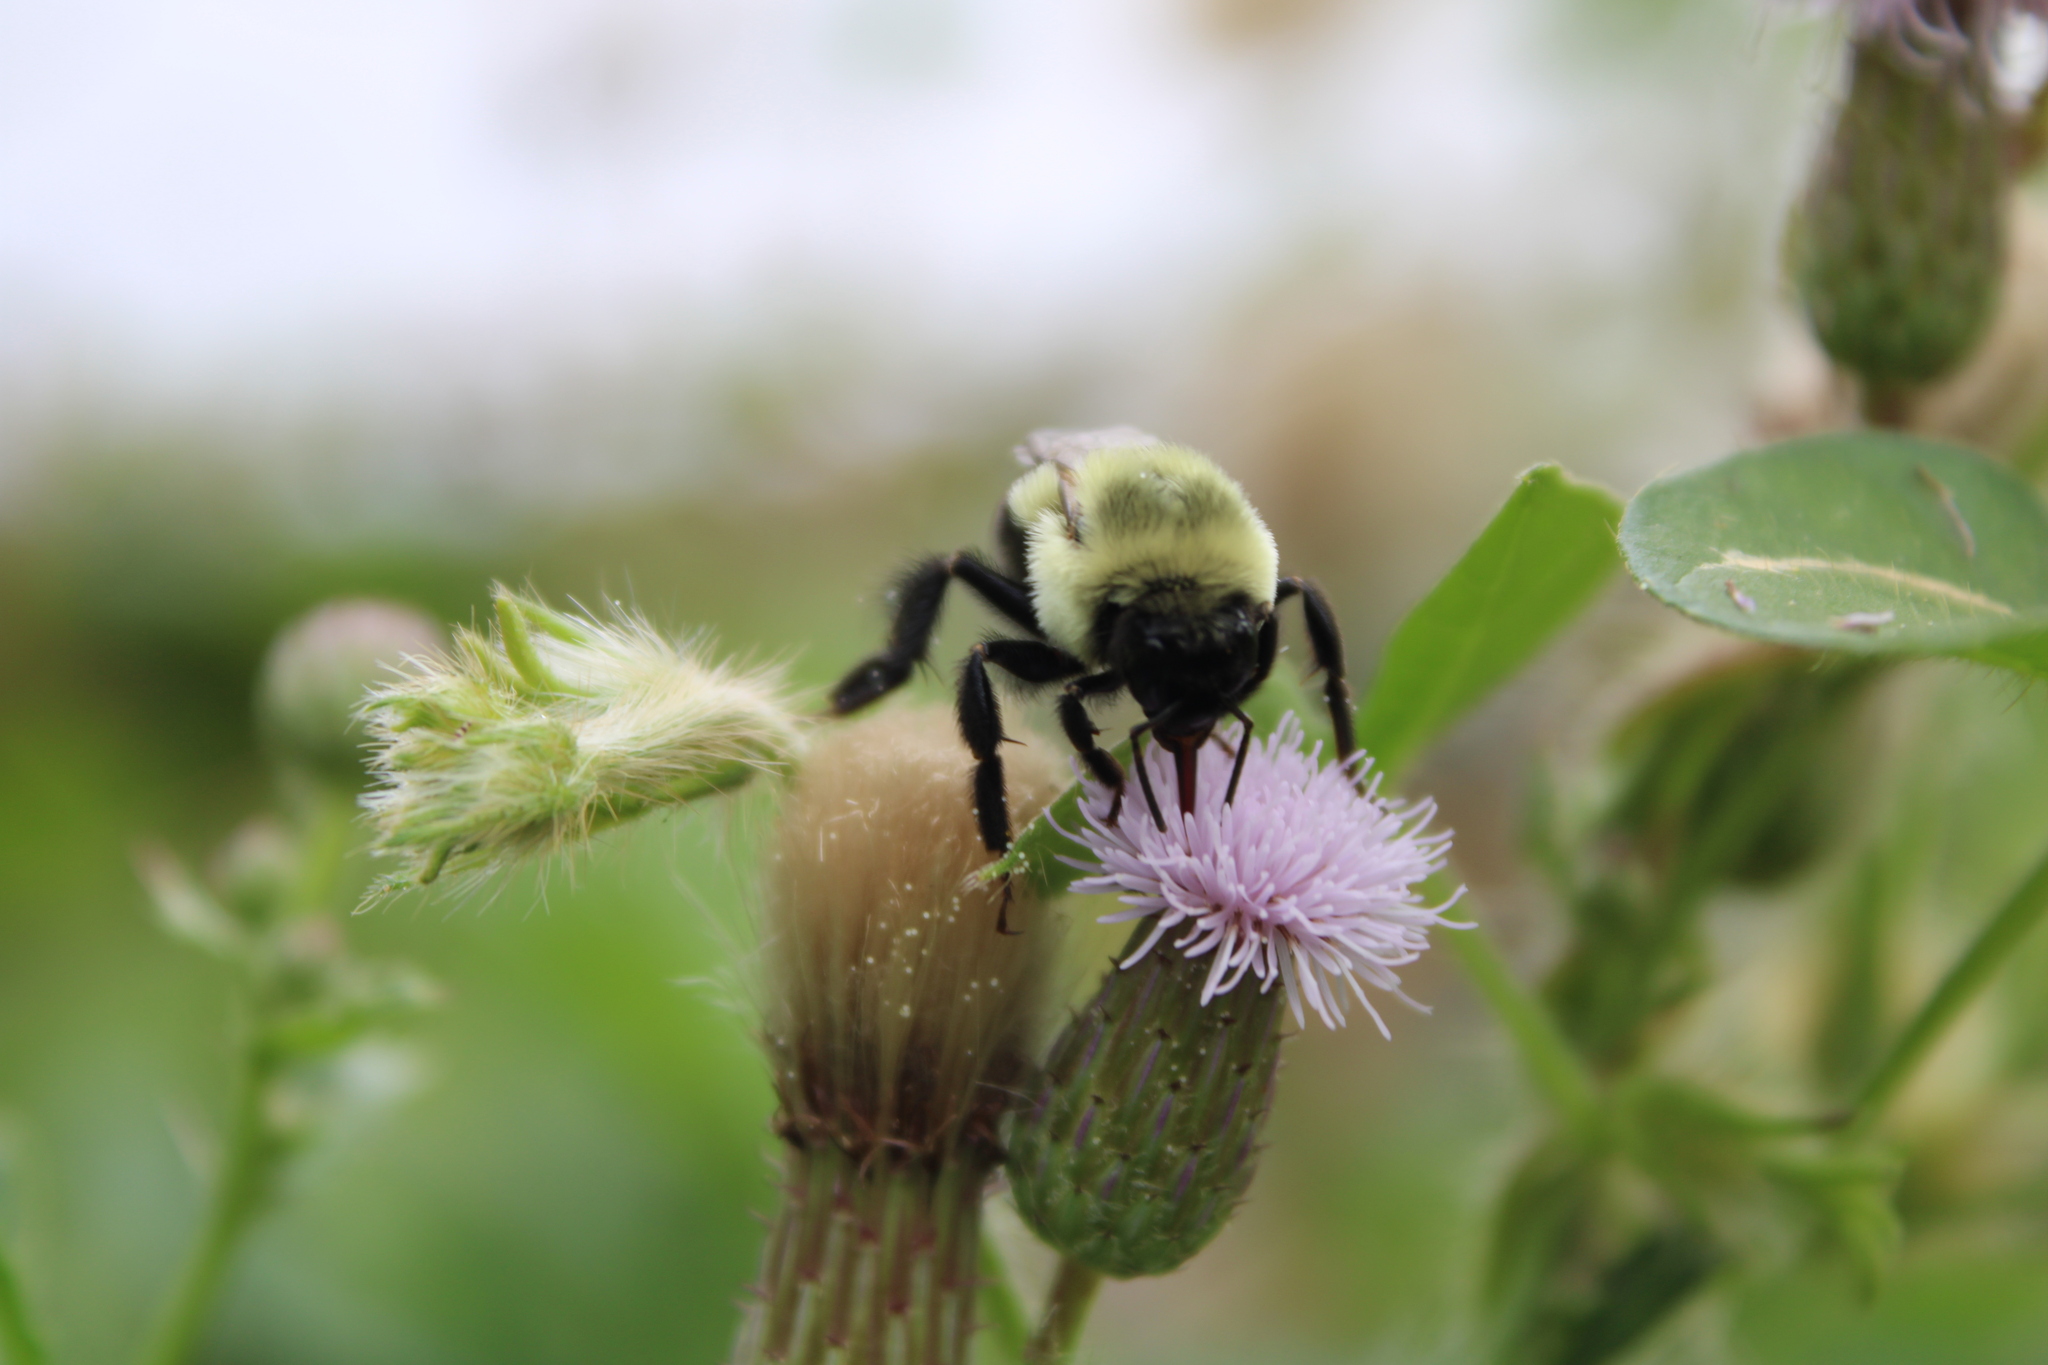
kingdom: Animalia
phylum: Arthropoda
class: Insecta
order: Hymenoptera
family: Apidae
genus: Bombus
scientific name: Bombus impatiens
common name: Common eastern bumble bee
